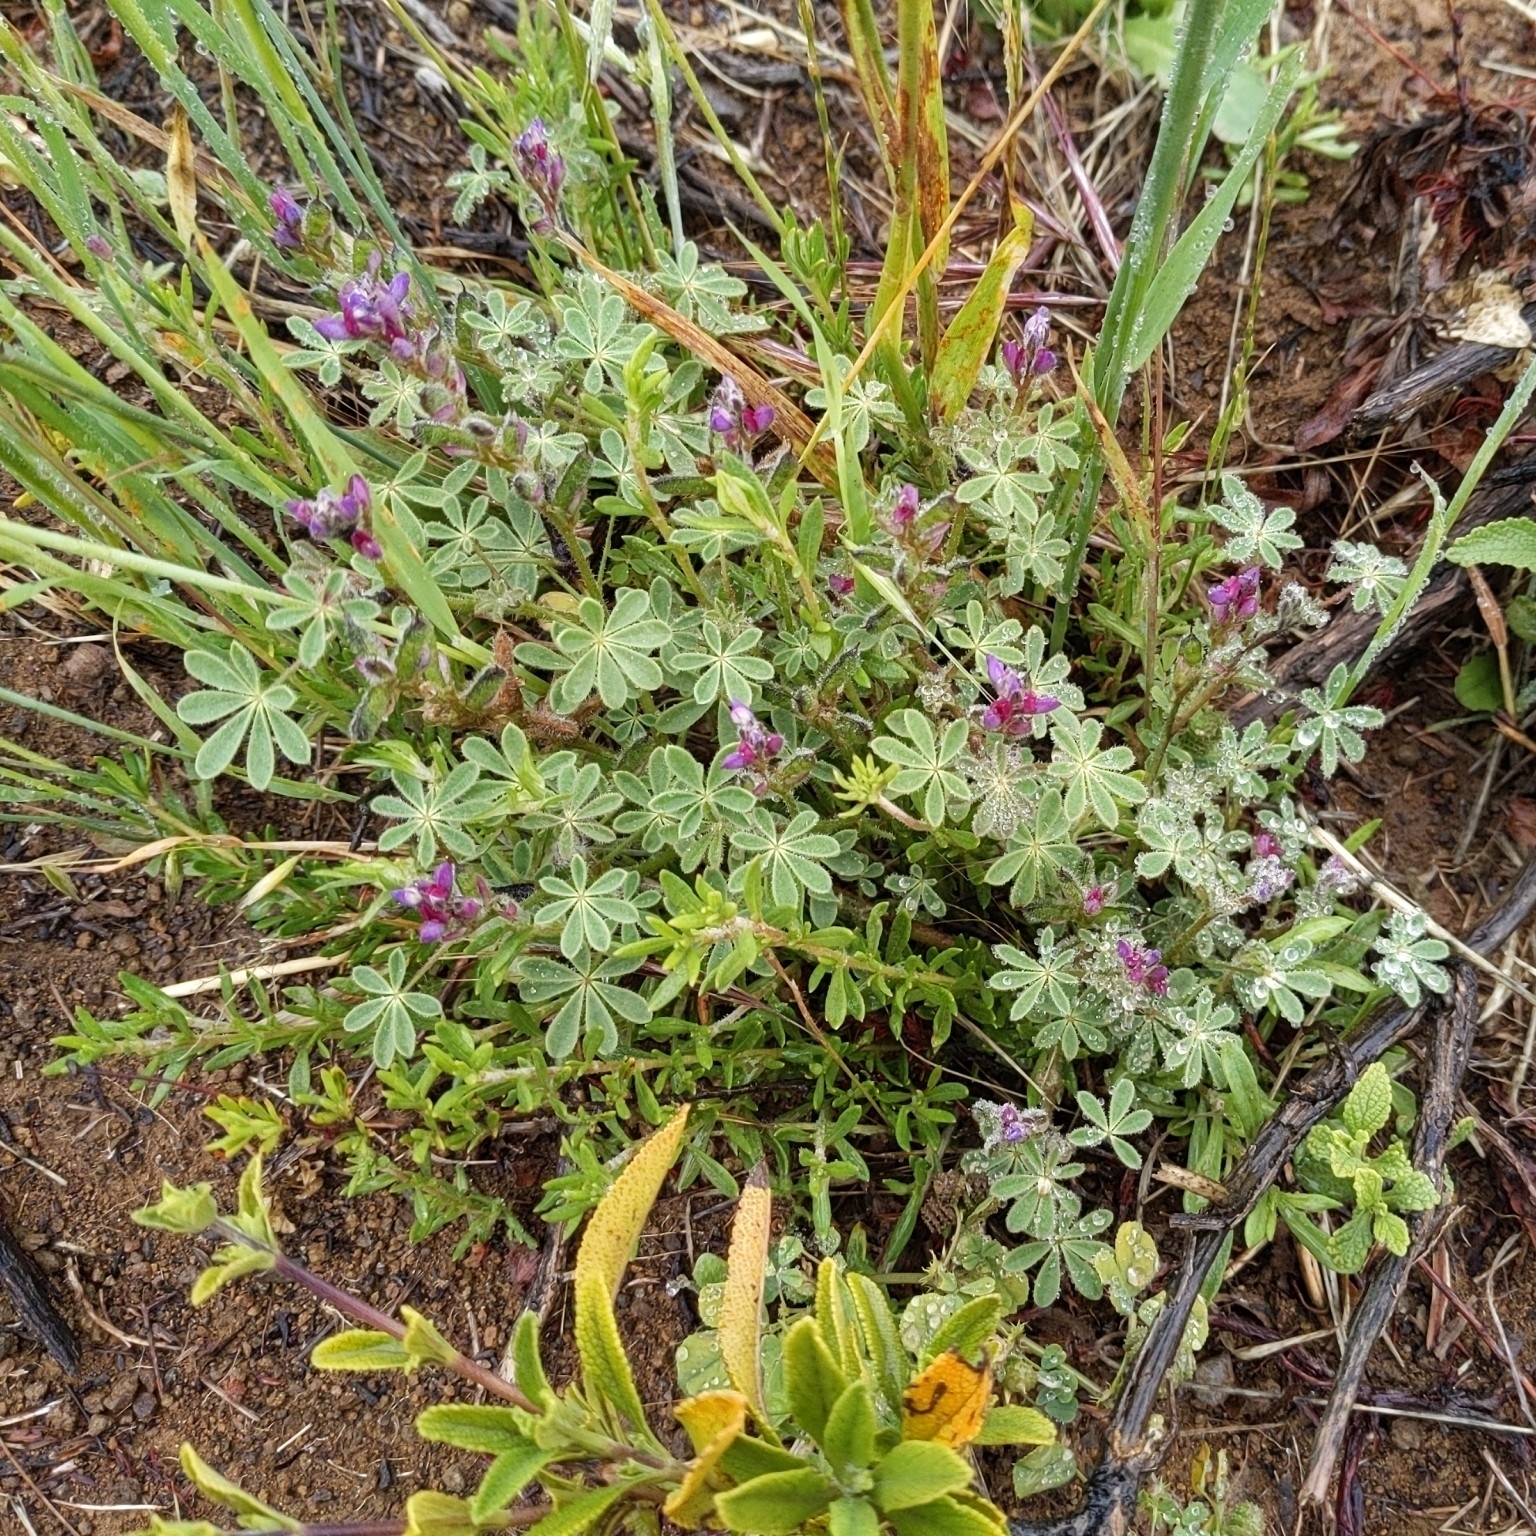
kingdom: Plantae
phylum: Tracheophyta
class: Magnoliopsida
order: Fabales
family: Fabaceae
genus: Lupinus
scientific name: Lupinus concinnus
